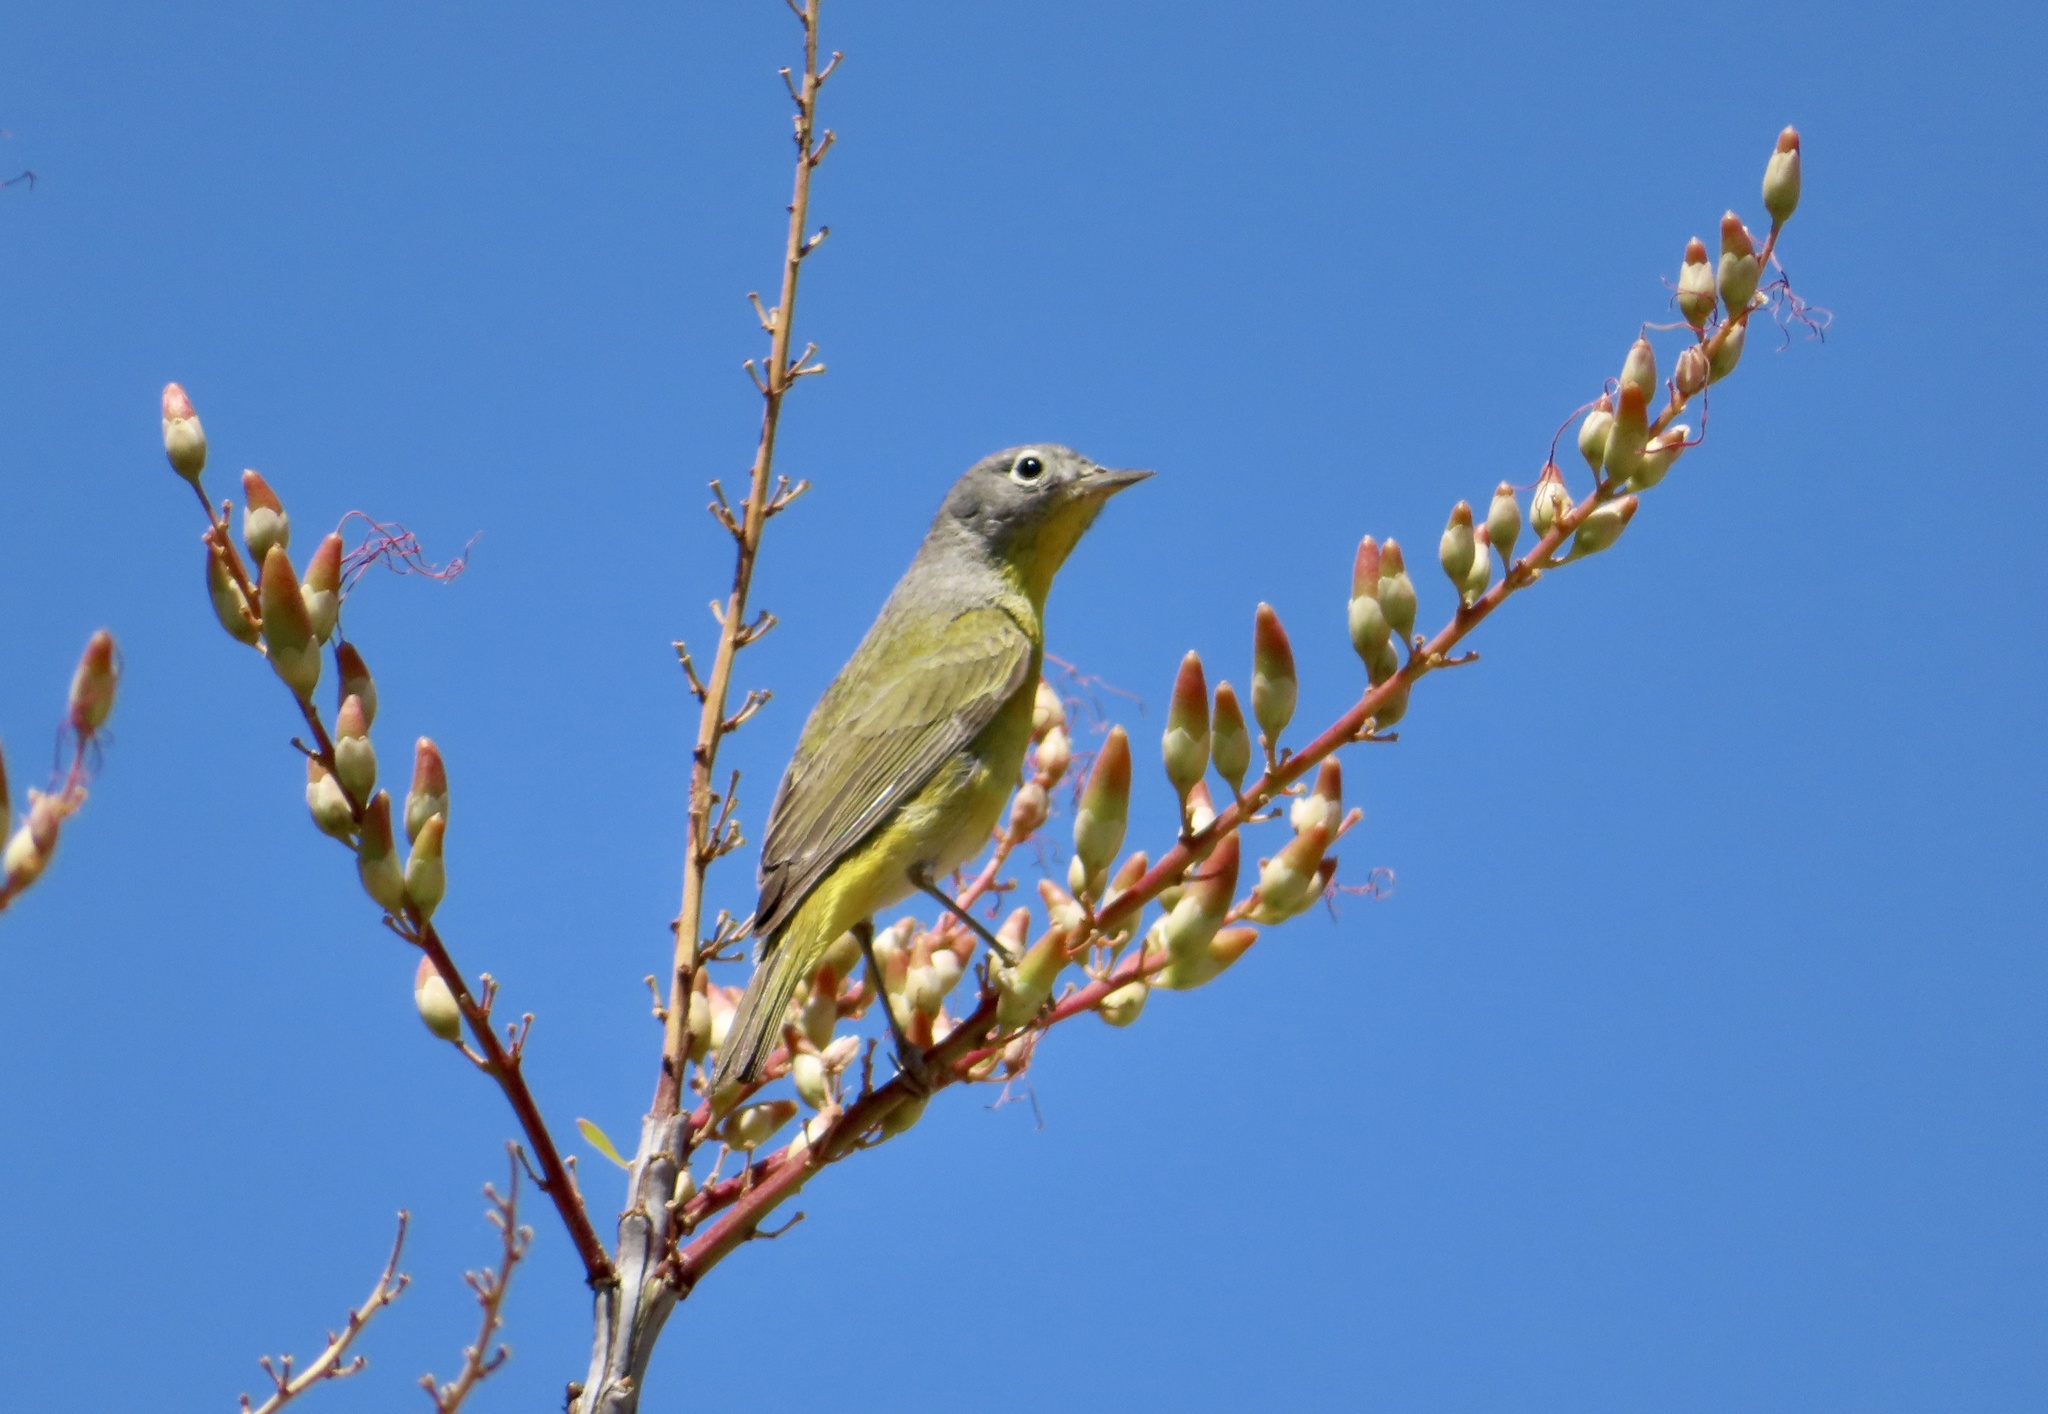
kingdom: Animalia
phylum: Chordata
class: Aves
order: Passeriformes
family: Parulidae
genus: Leiothlypis
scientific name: Leiothlypis ruficapilla
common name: Nashville warbler
